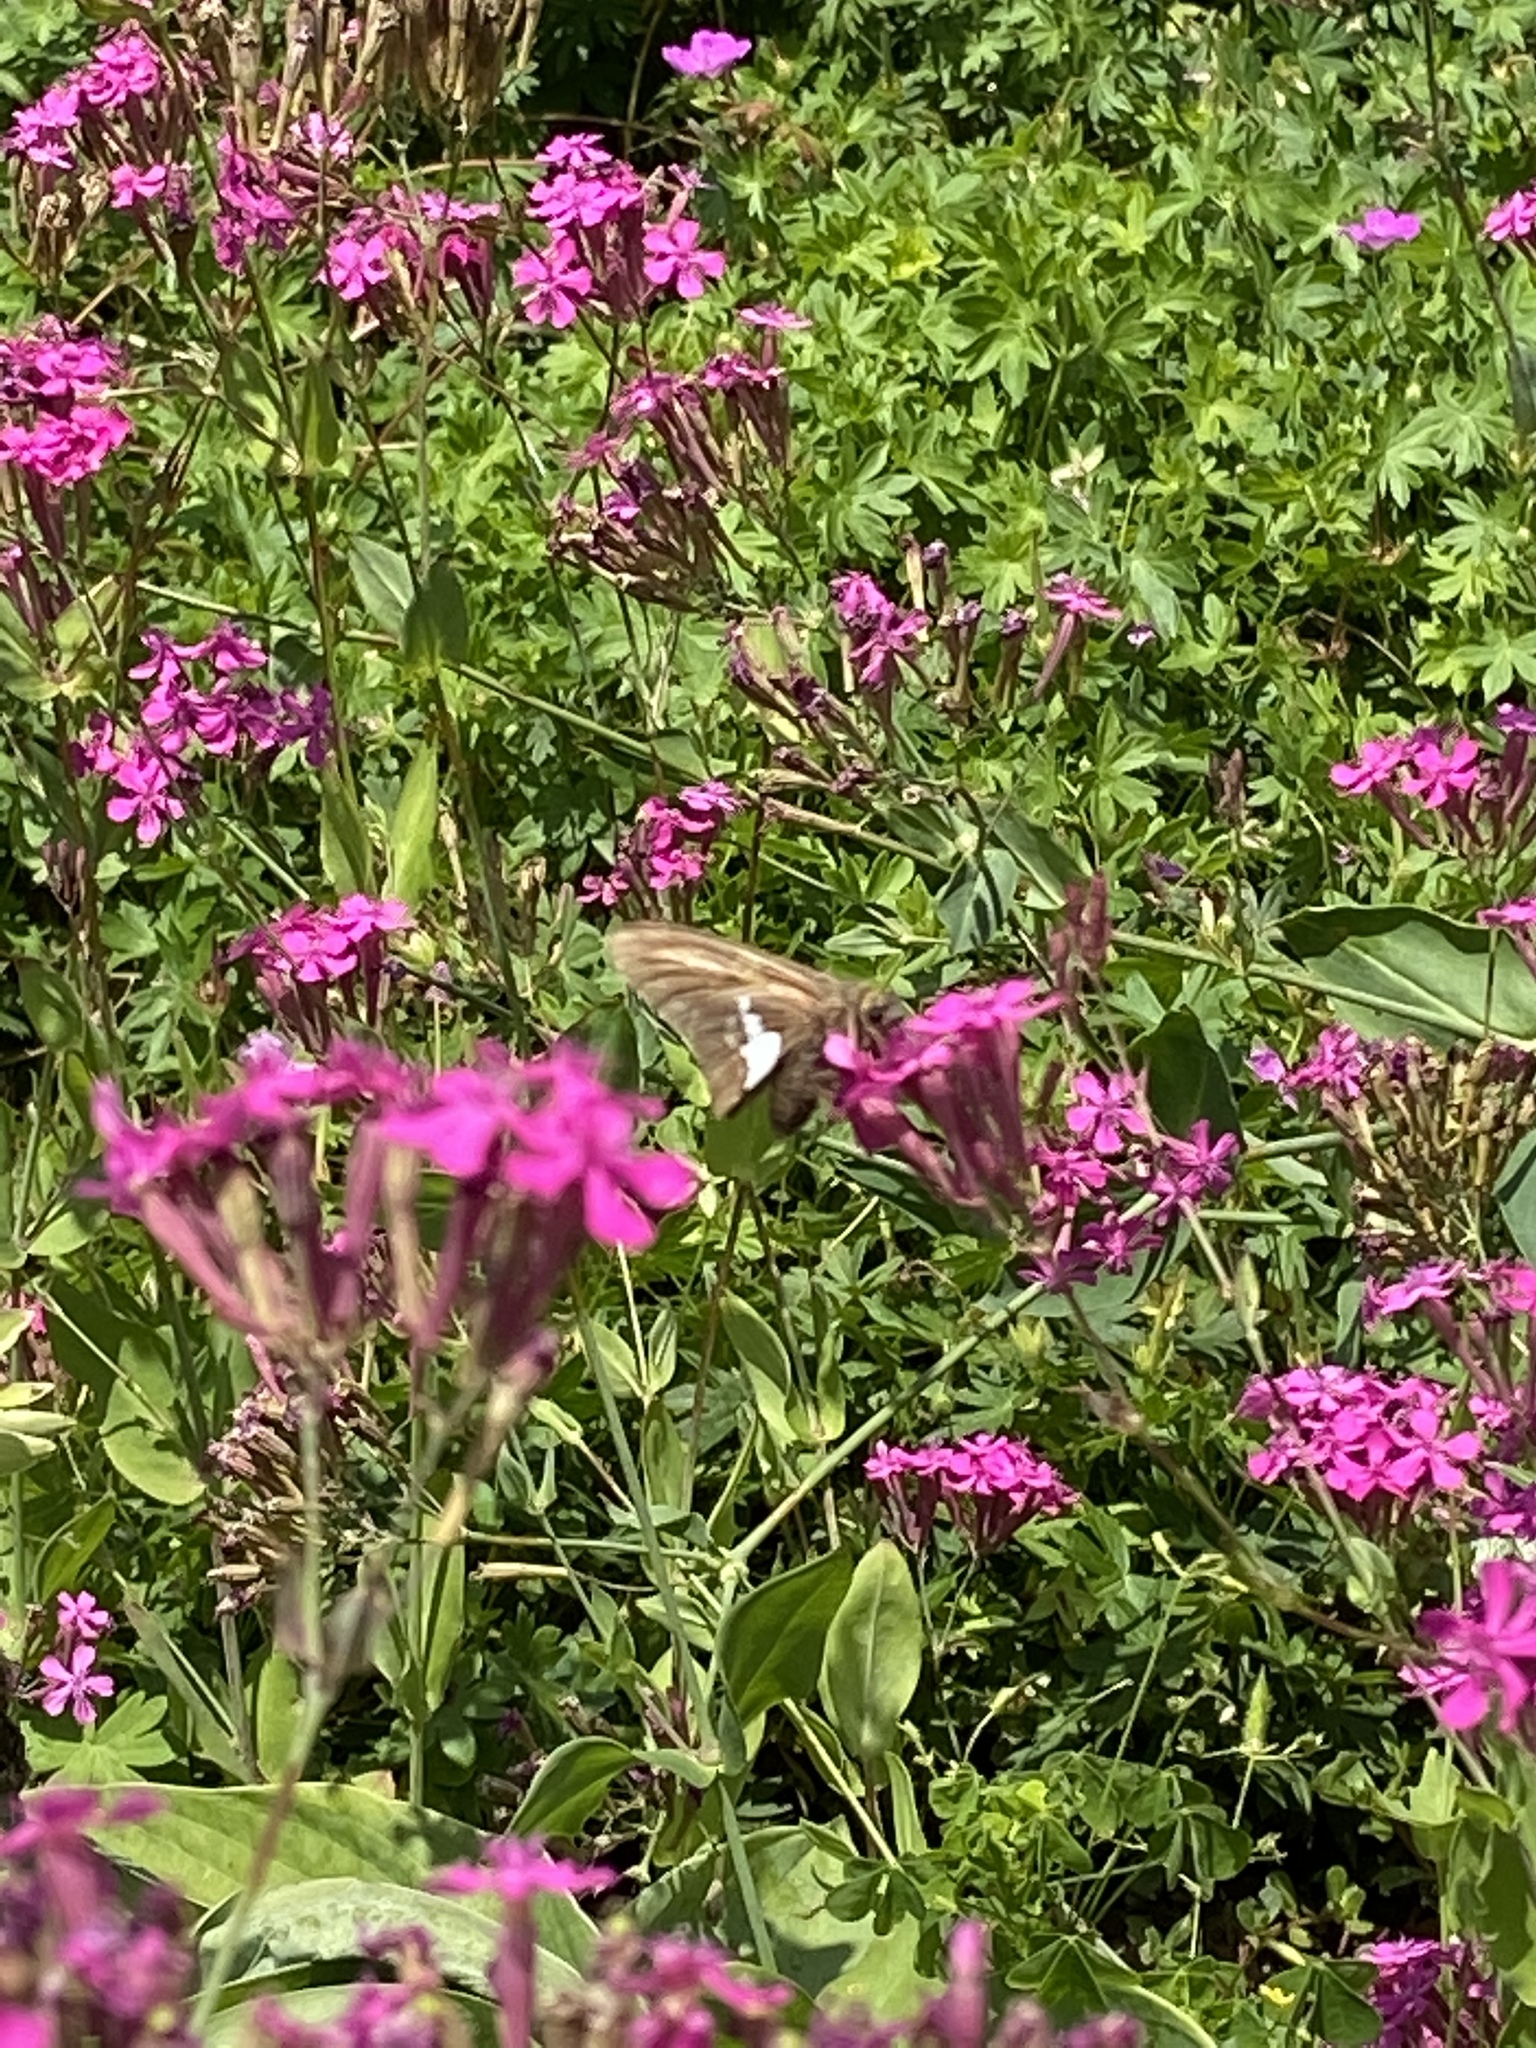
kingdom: Animalia
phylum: Arthropoda
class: Insecta
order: Lepidoptera
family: Hesperiidae
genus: Epargyreus
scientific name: Epargyreus clarus
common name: Silver-spotted skipper
